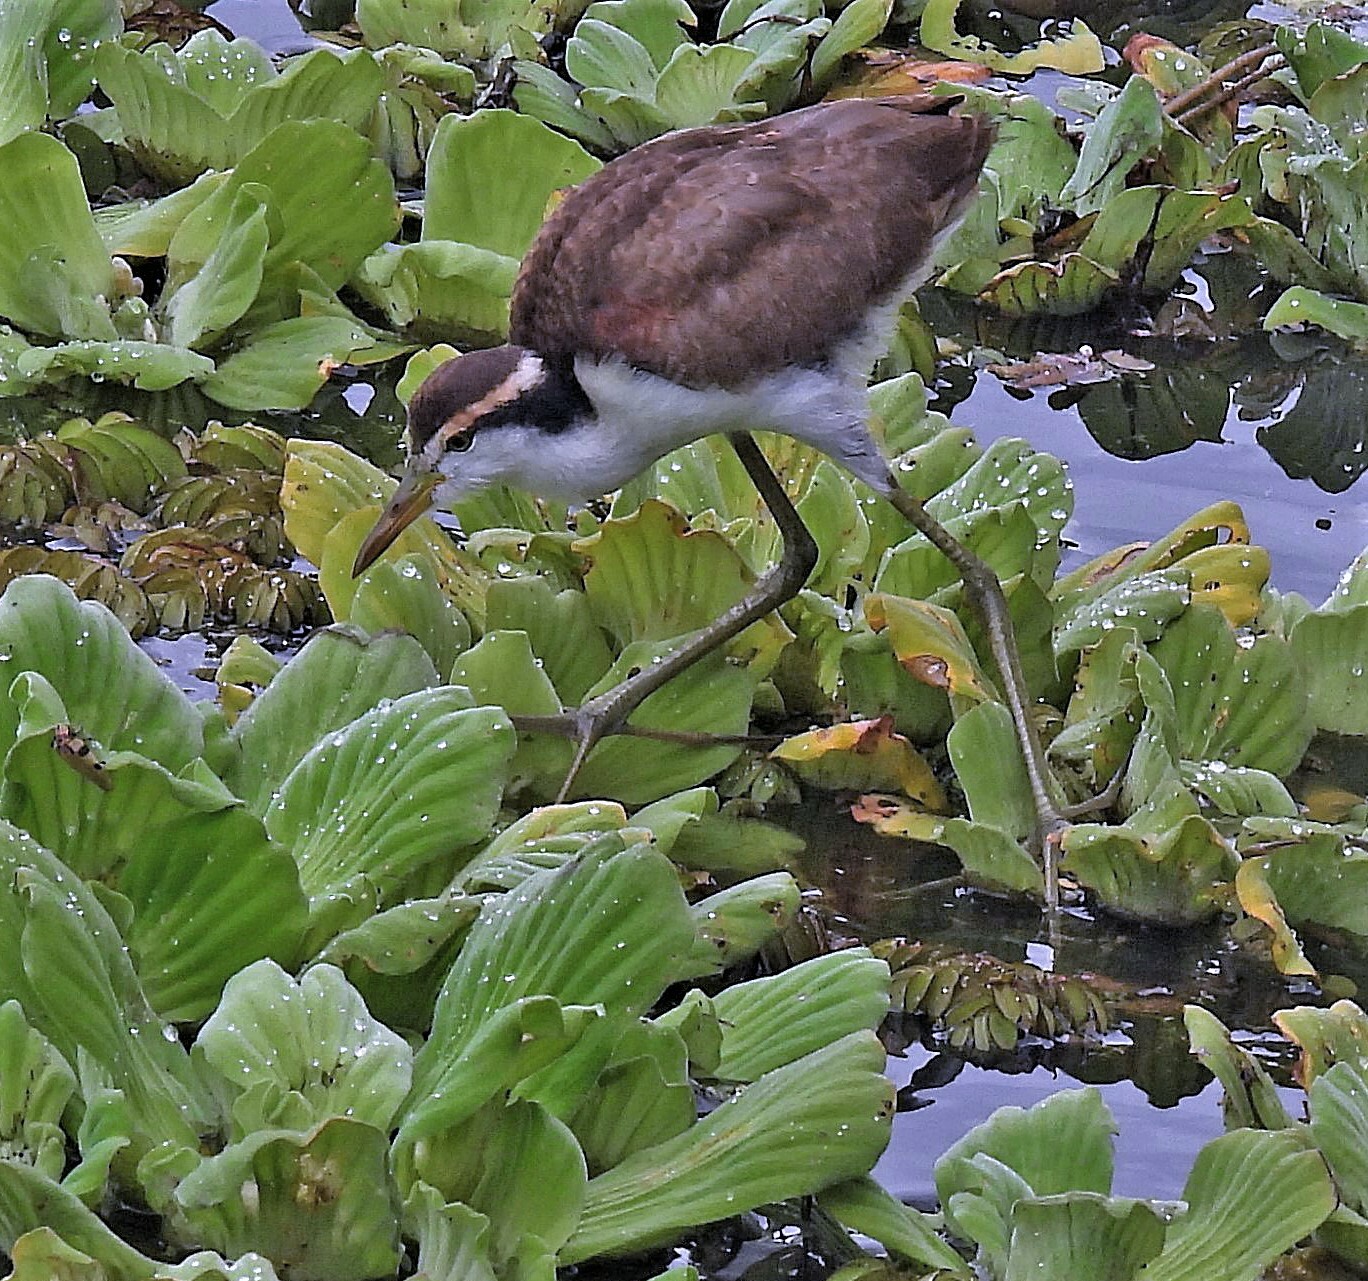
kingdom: Animalia
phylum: Chordata
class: Aves
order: Charadriiformes
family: Jacanidae
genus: Jacana
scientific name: Jacana jacana
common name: Wattled jacana
